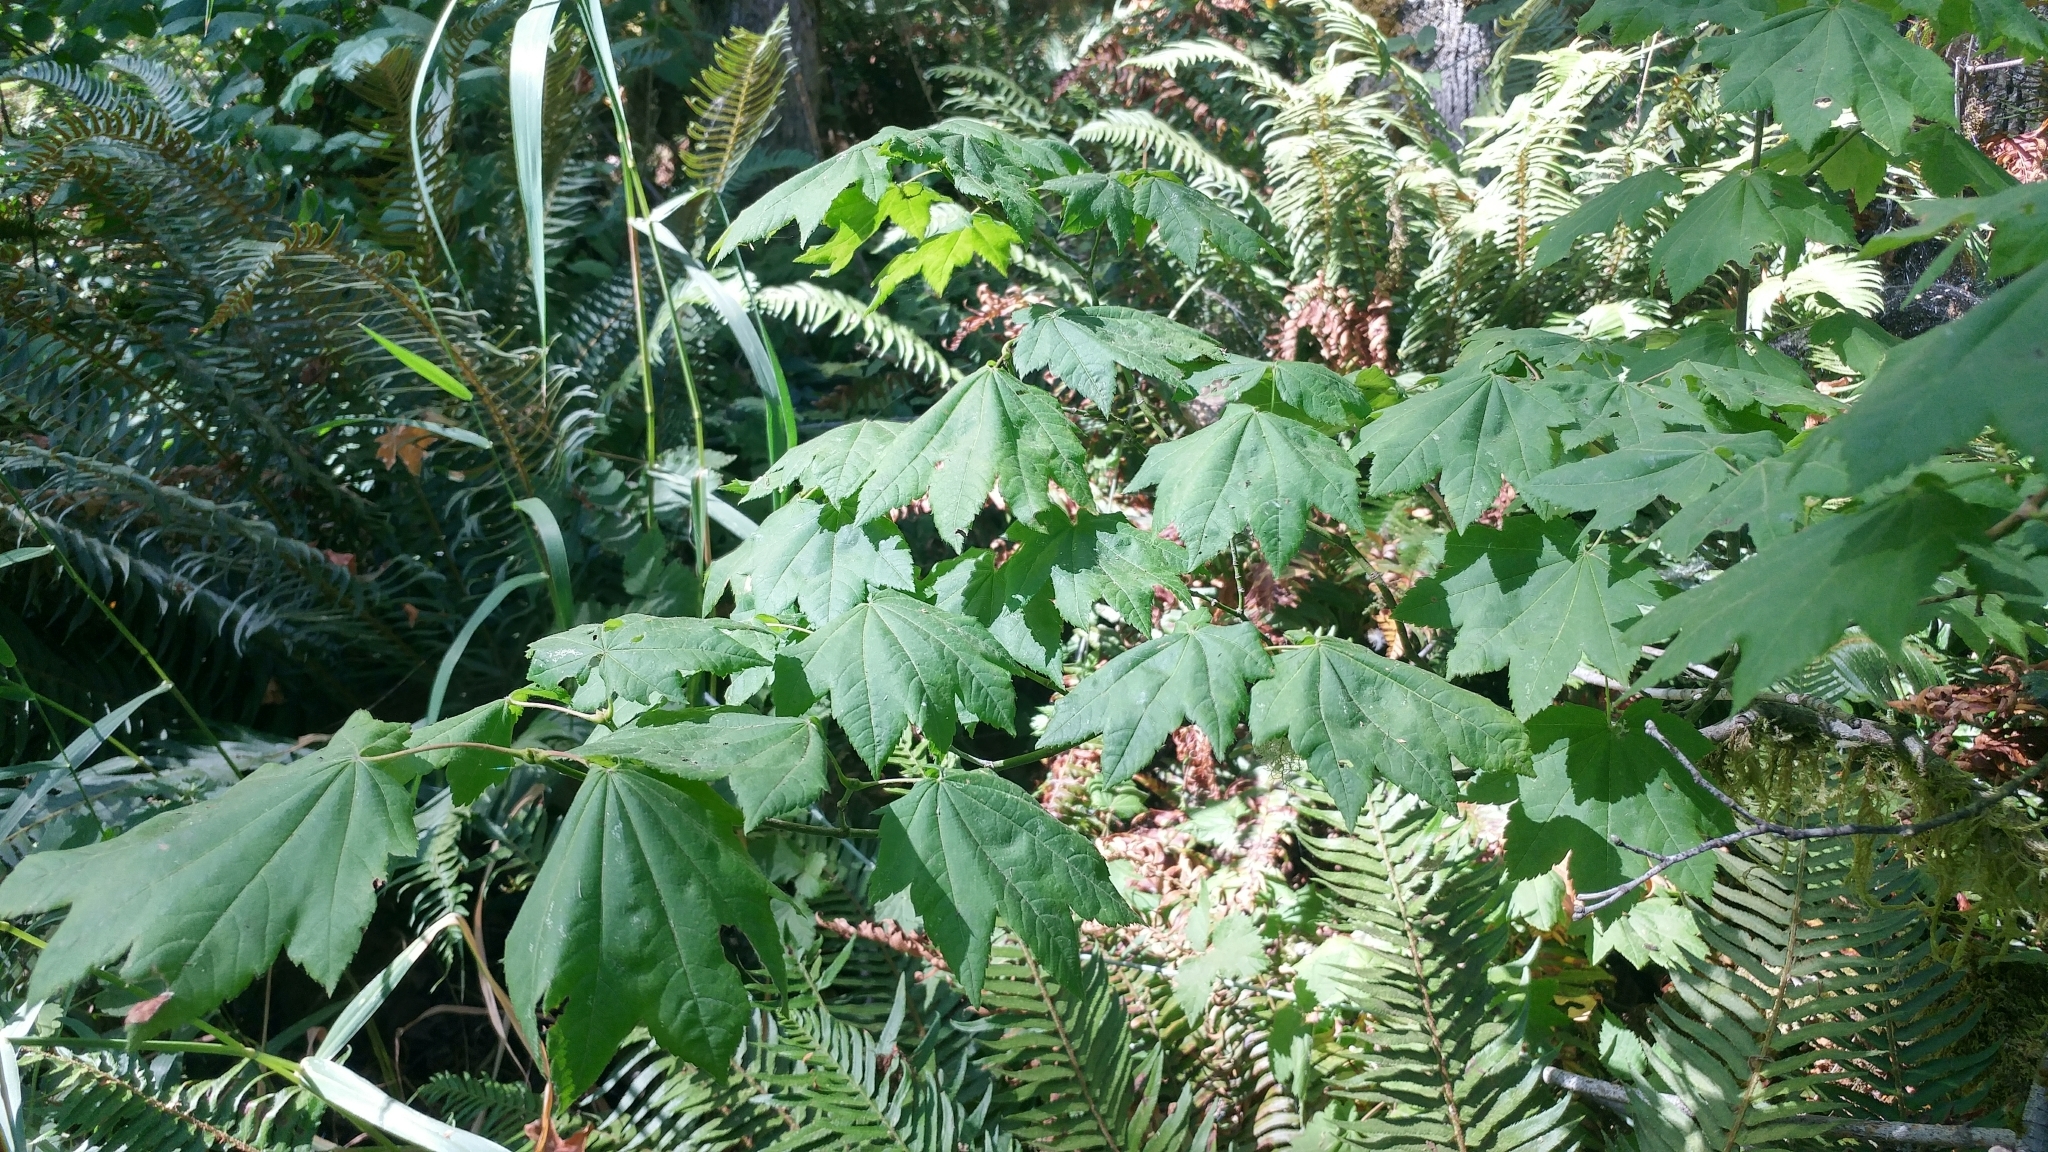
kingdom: Plantae
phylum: Tracheophyta
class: Magnoliopsida
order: Sapindales
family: Sapindaceae
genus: Acer
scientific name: Acer circinatum
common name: Vine maple
